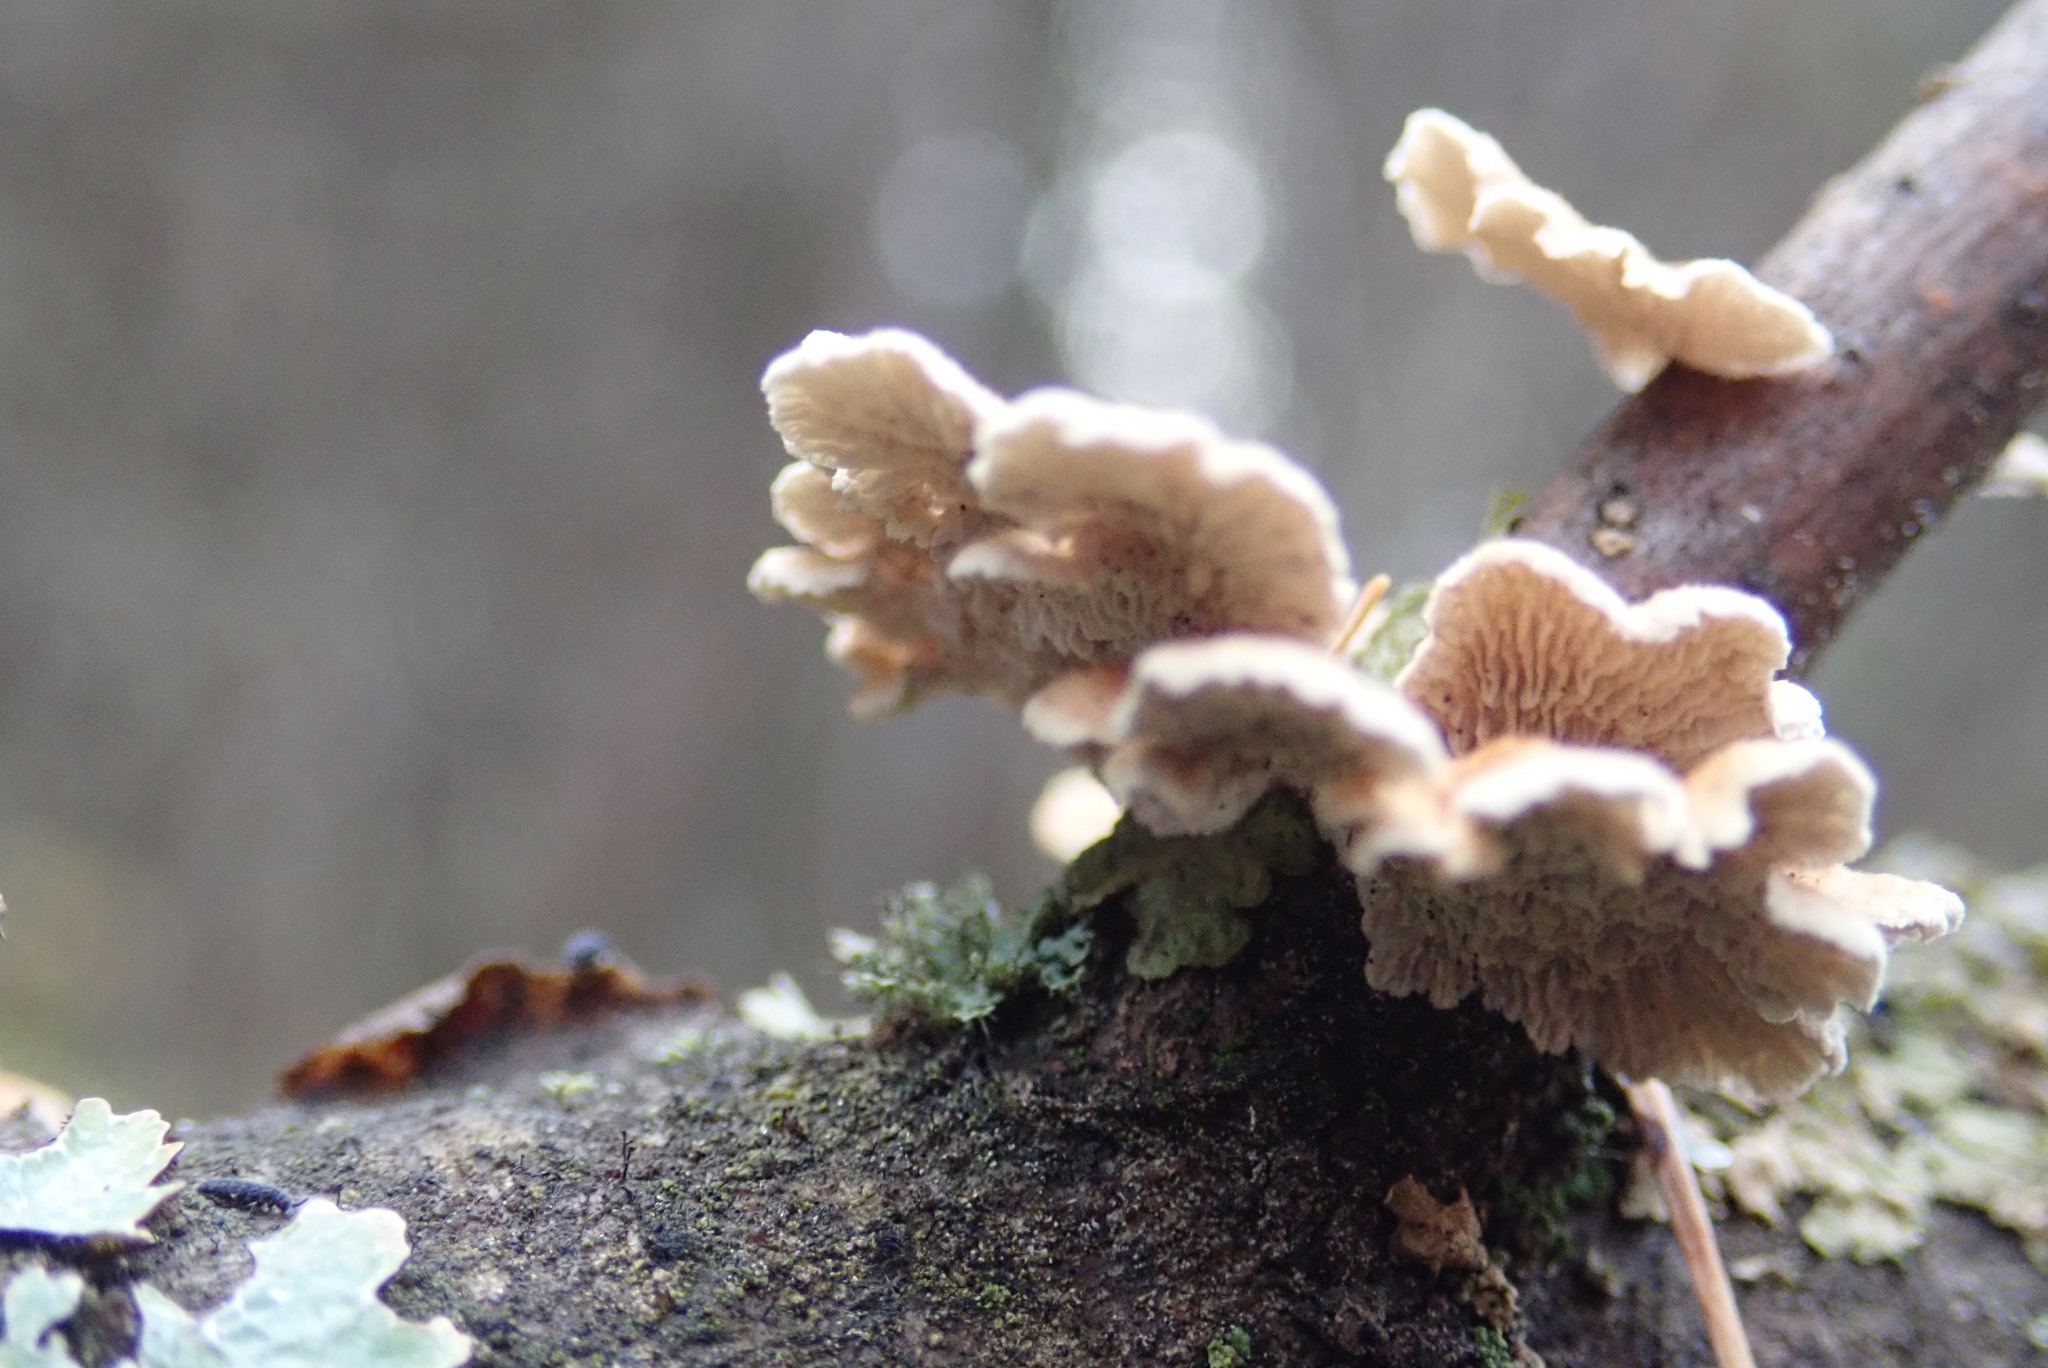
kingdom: Fungi
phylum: Basidiomycota
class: Agaricomycetes
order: Agaricales
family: Schizophyllaceae
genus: Schizophyllum
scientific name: Schizophyllum commune
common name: Common porecrust
